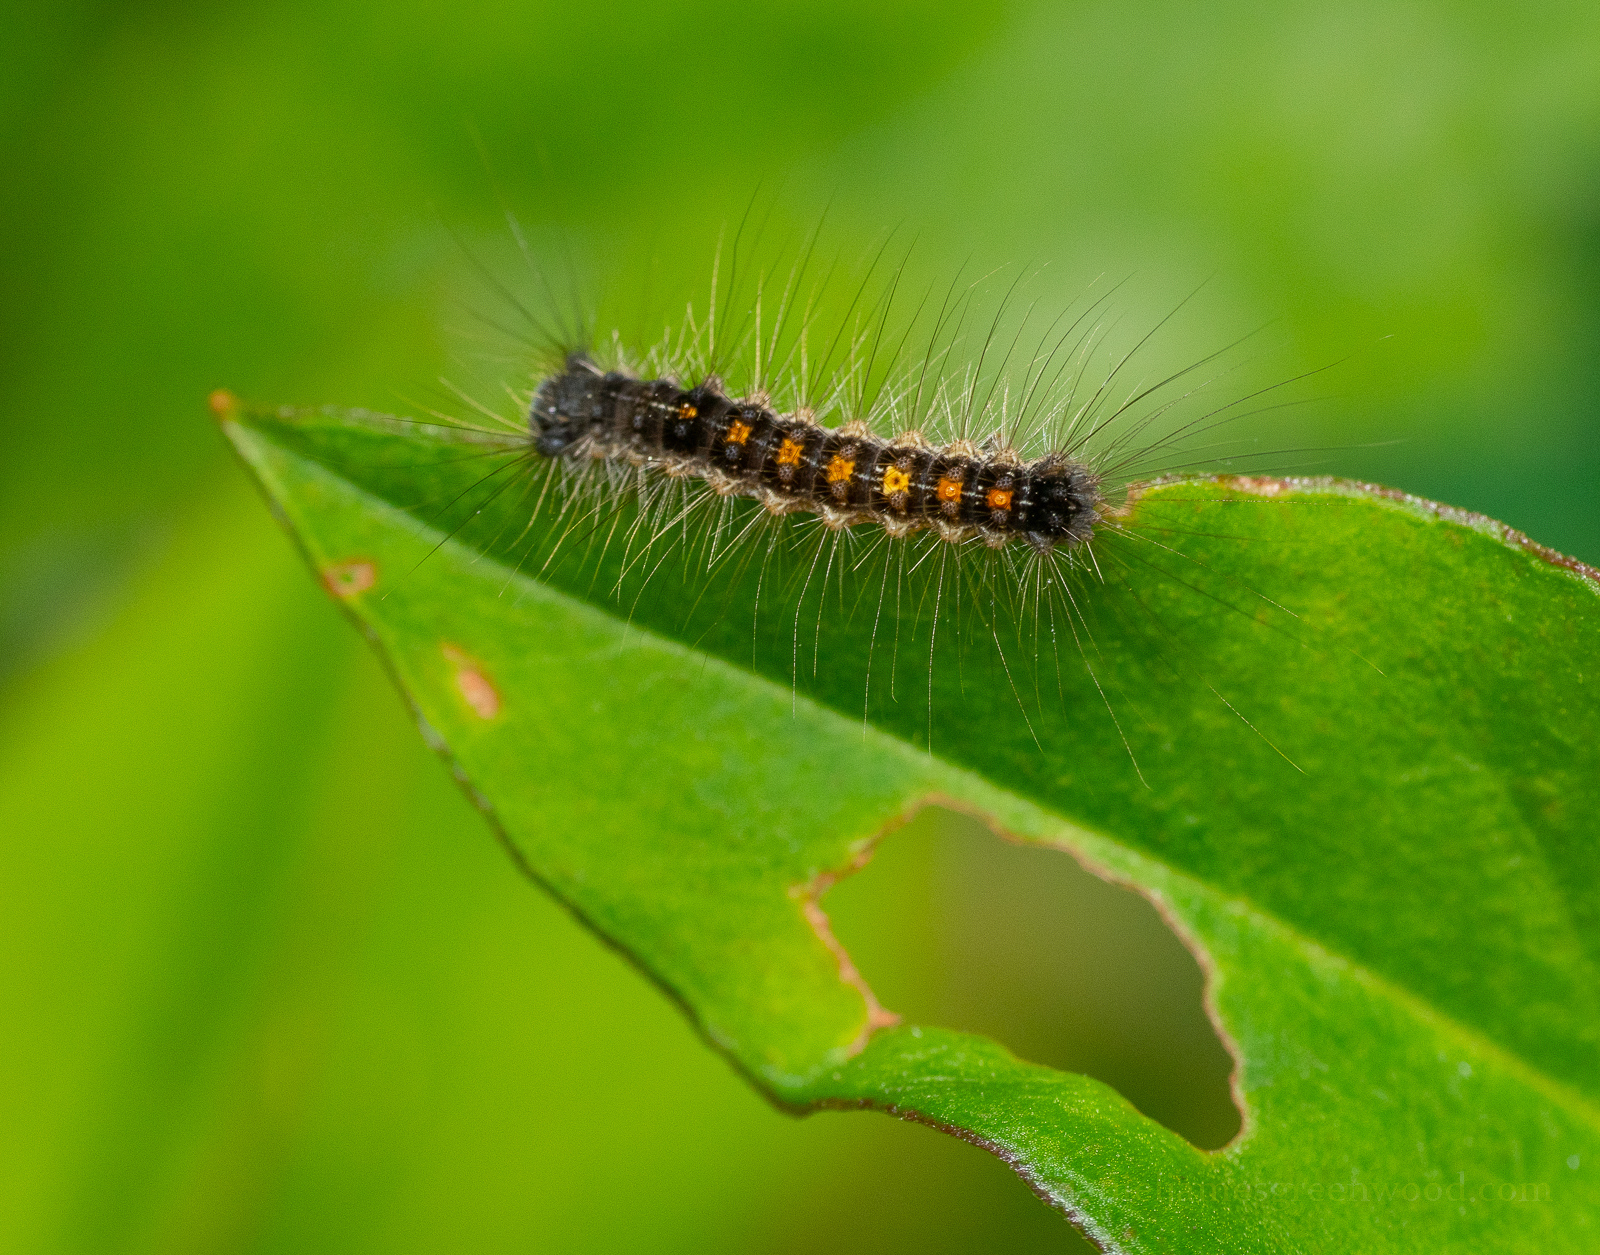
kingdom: Animalia
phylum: Arthropoda
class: Insecta
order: Lepidoptera
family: Erebidae
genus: Lymantria
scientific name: Lymantria dispar
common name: Gypsy moth
